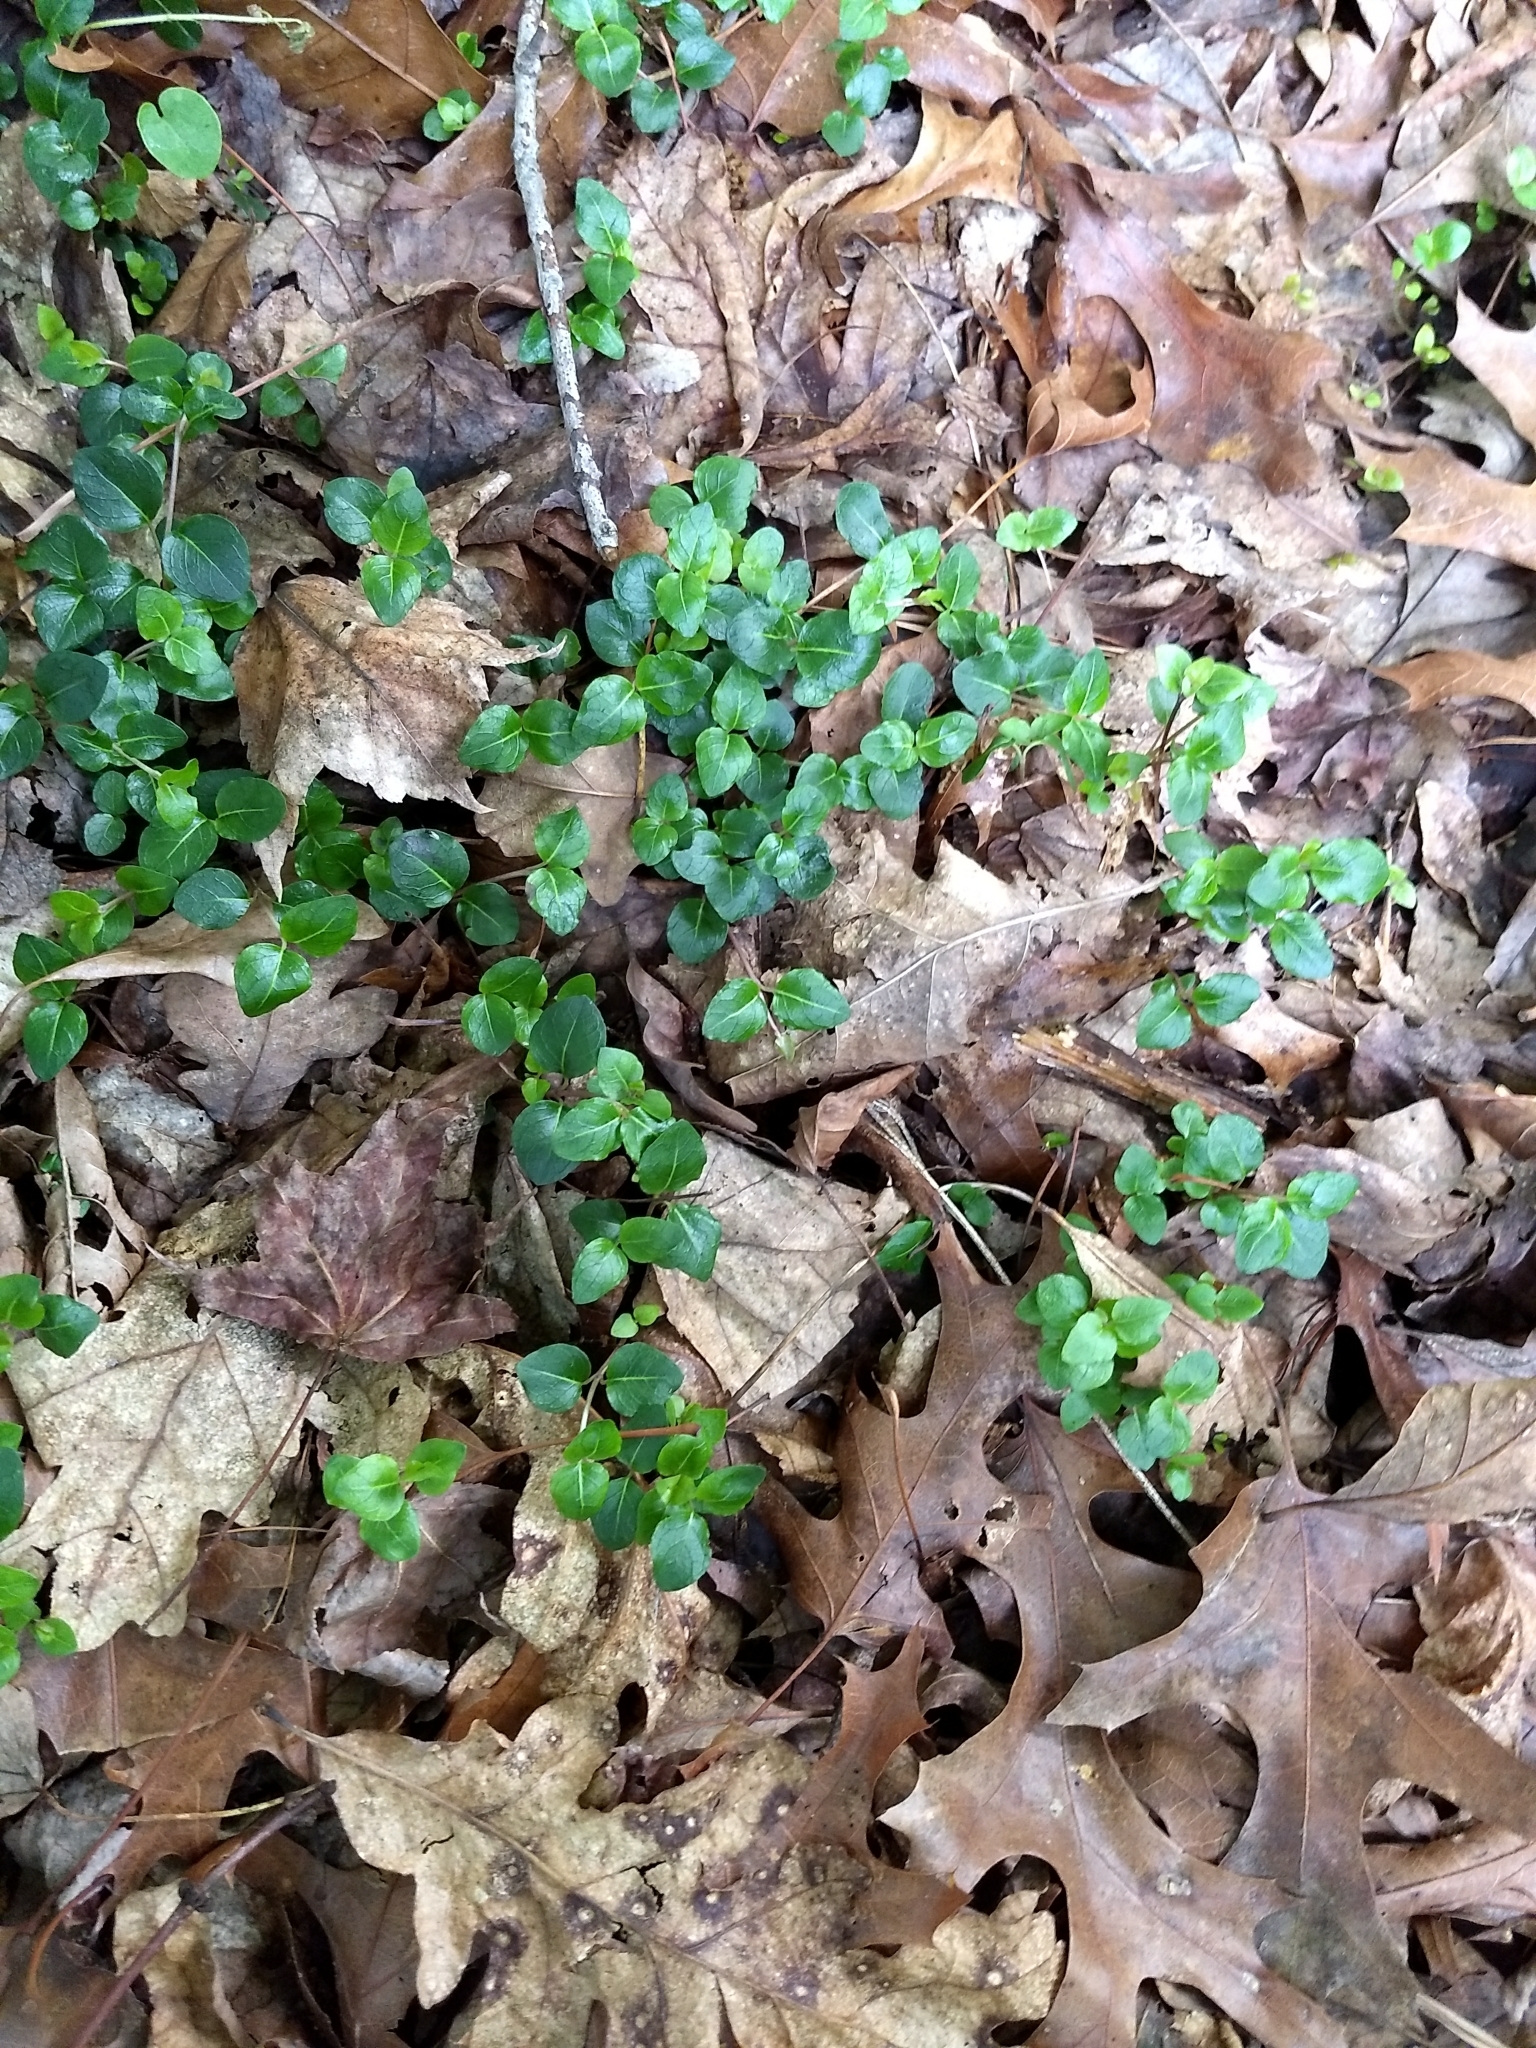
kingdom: Plantae
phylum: Tracheophyta
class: Magnoliopsida
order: Gentianales
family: Rubiaceae
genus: Mitchella
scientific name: Mitchella repens
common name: Partridge-berry
